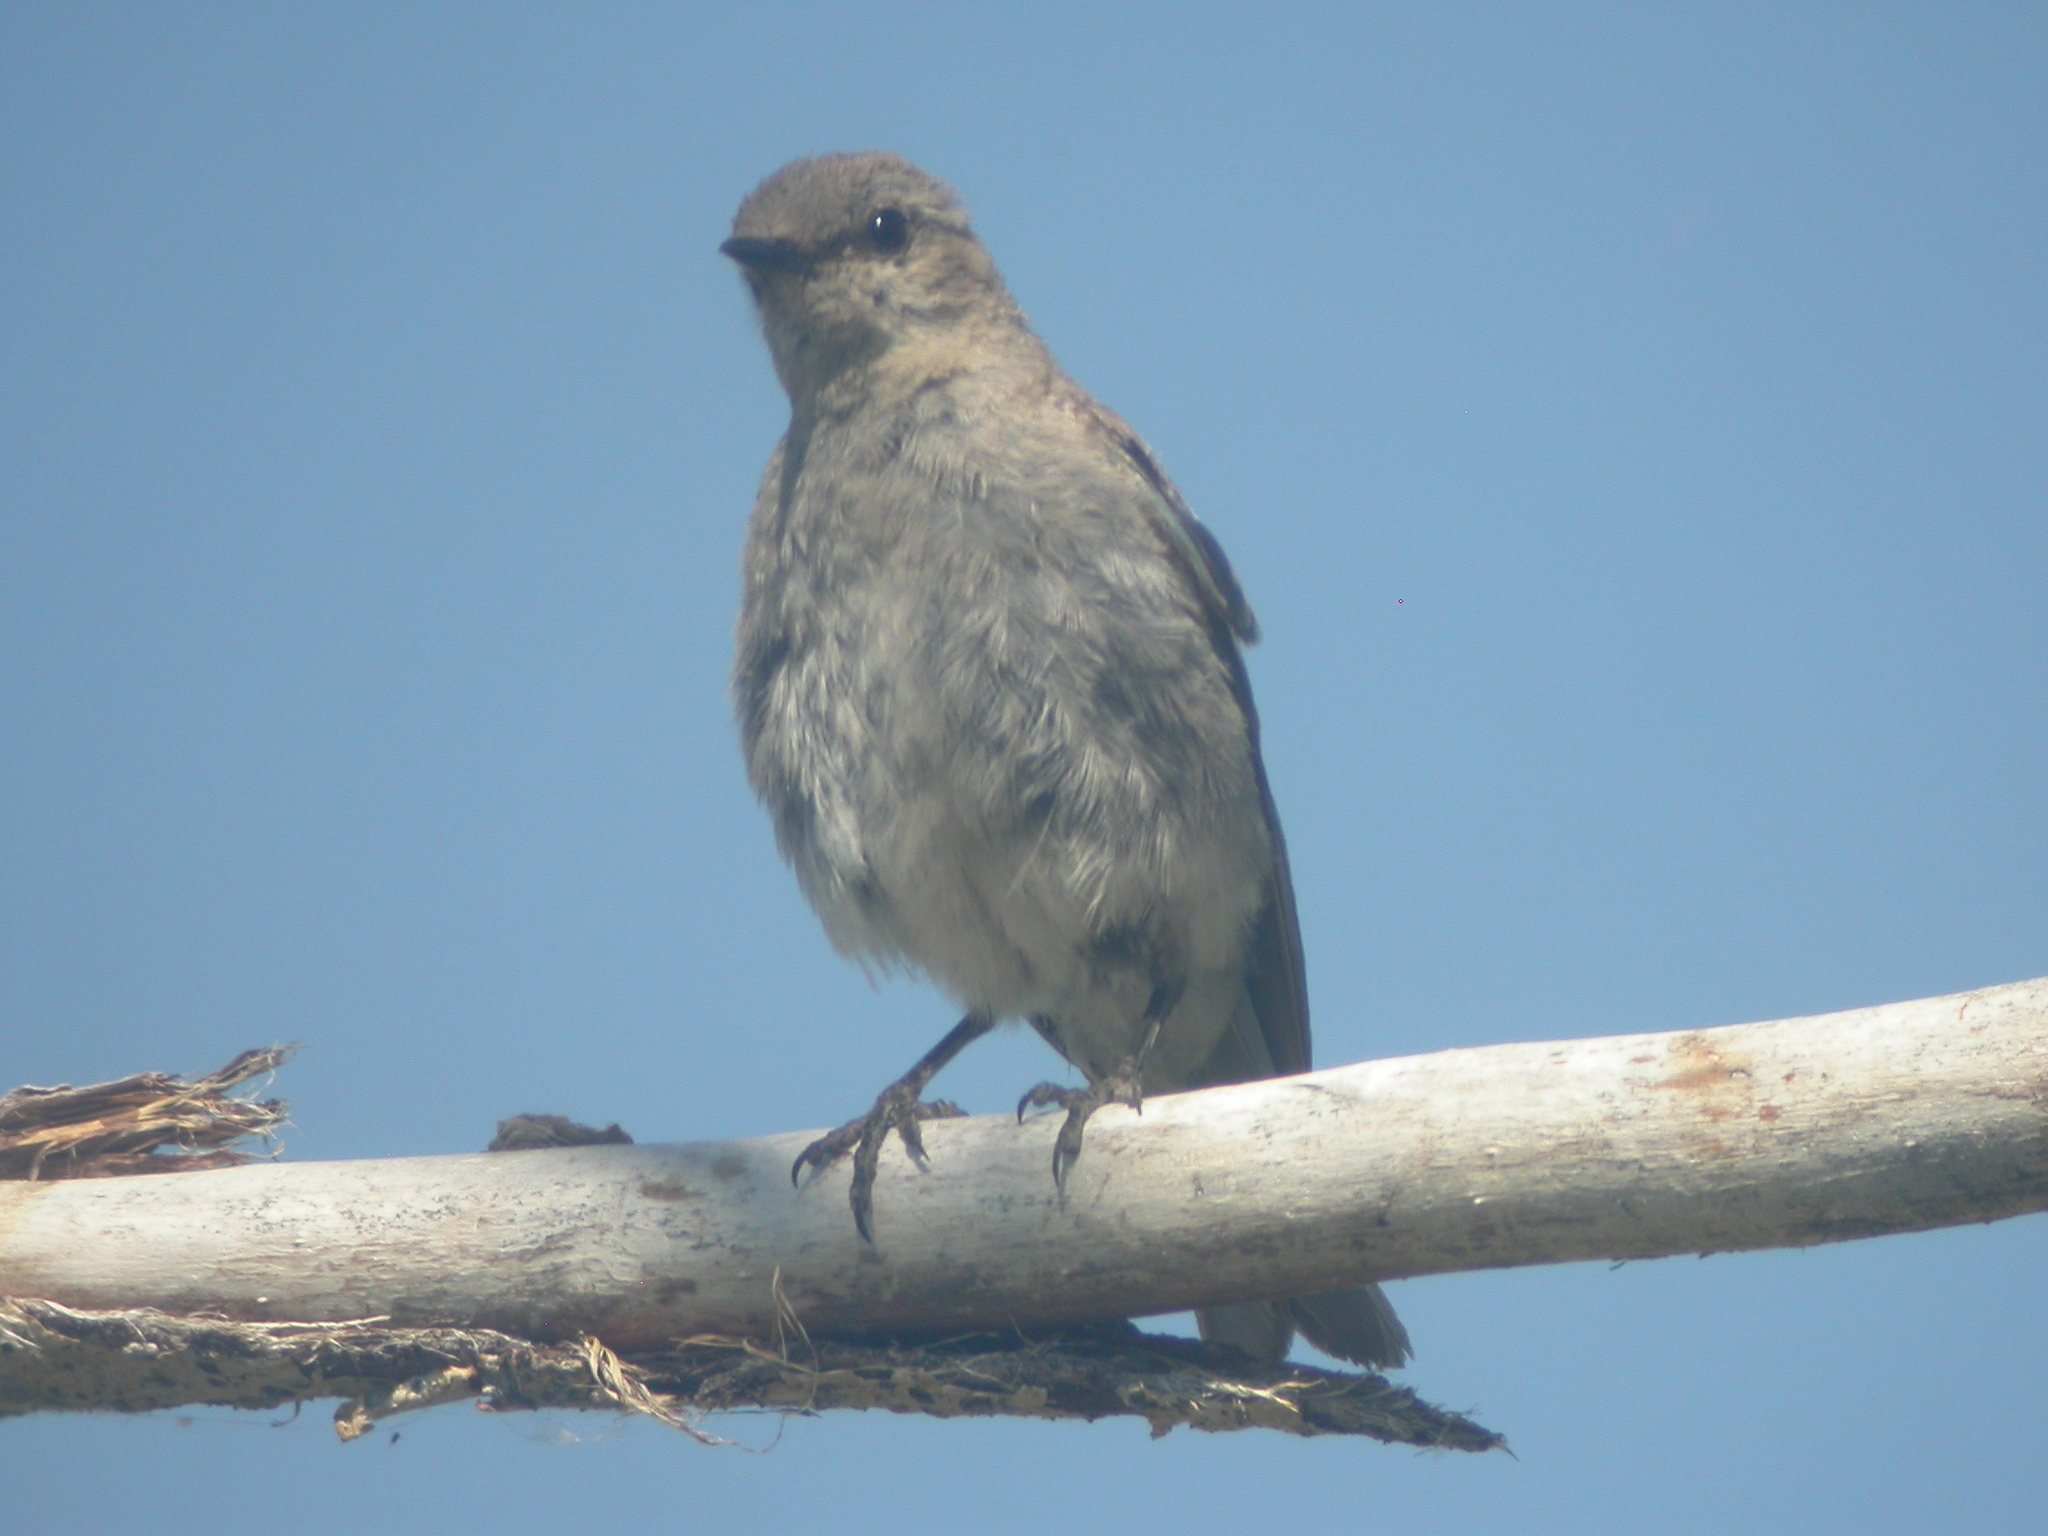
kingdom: Animalia
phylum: Chordata
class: Aves
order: Passeriformes
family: Turdidae
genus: Sialia
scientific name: Sialia currucoides
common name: Mountain bluebird
